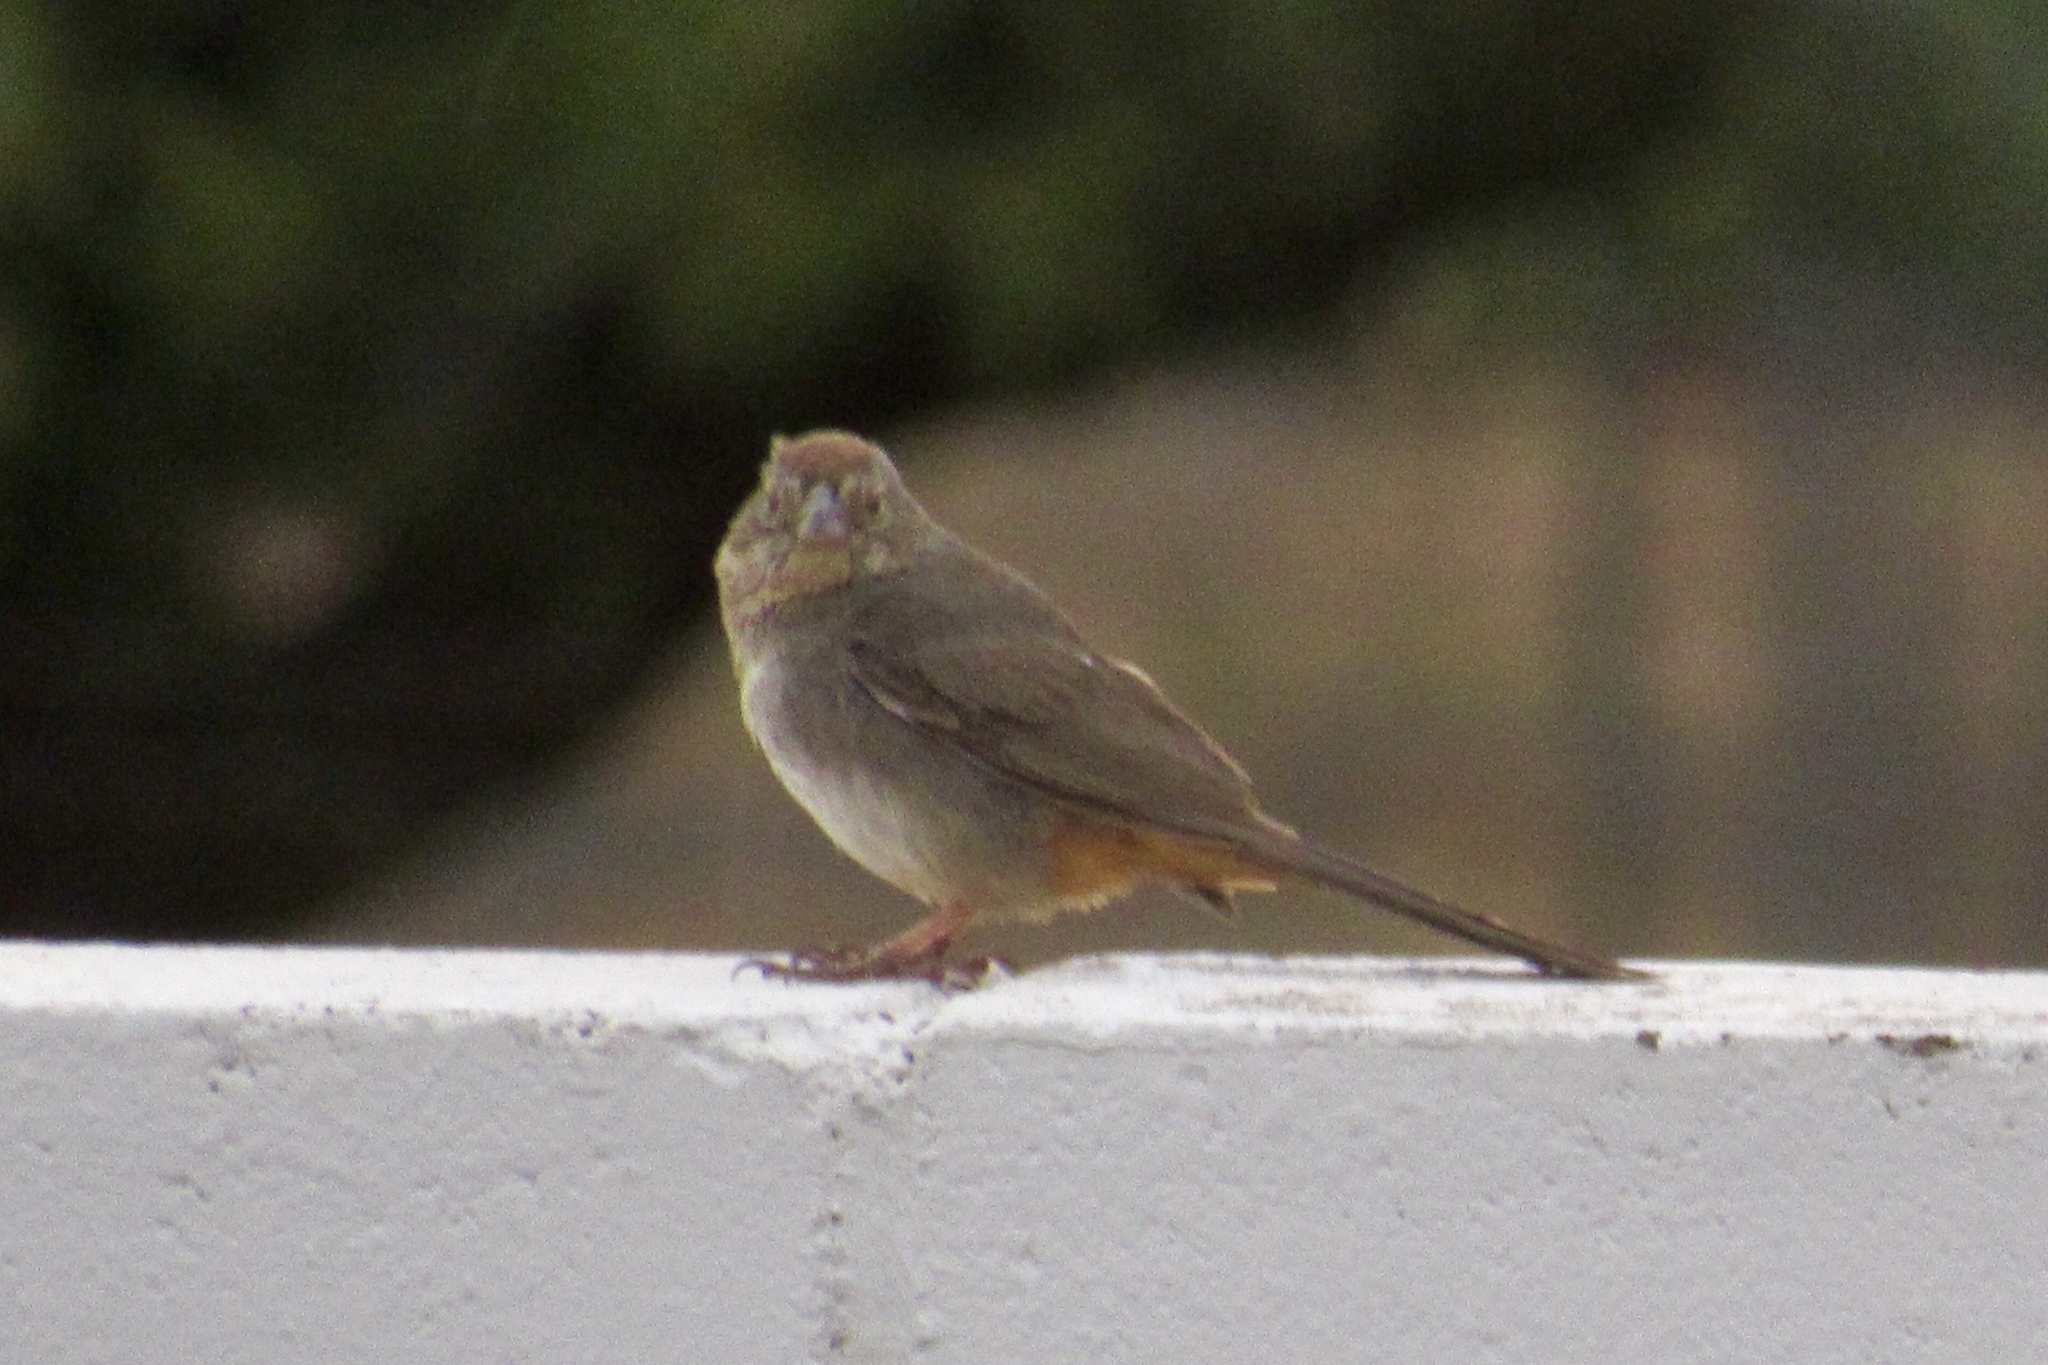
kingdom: Animalia
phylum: Chordata
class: Aves
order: Passeriformes
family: Passerellidae
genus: Melozone
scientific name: Melozone fusca
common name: Canyon towhee
